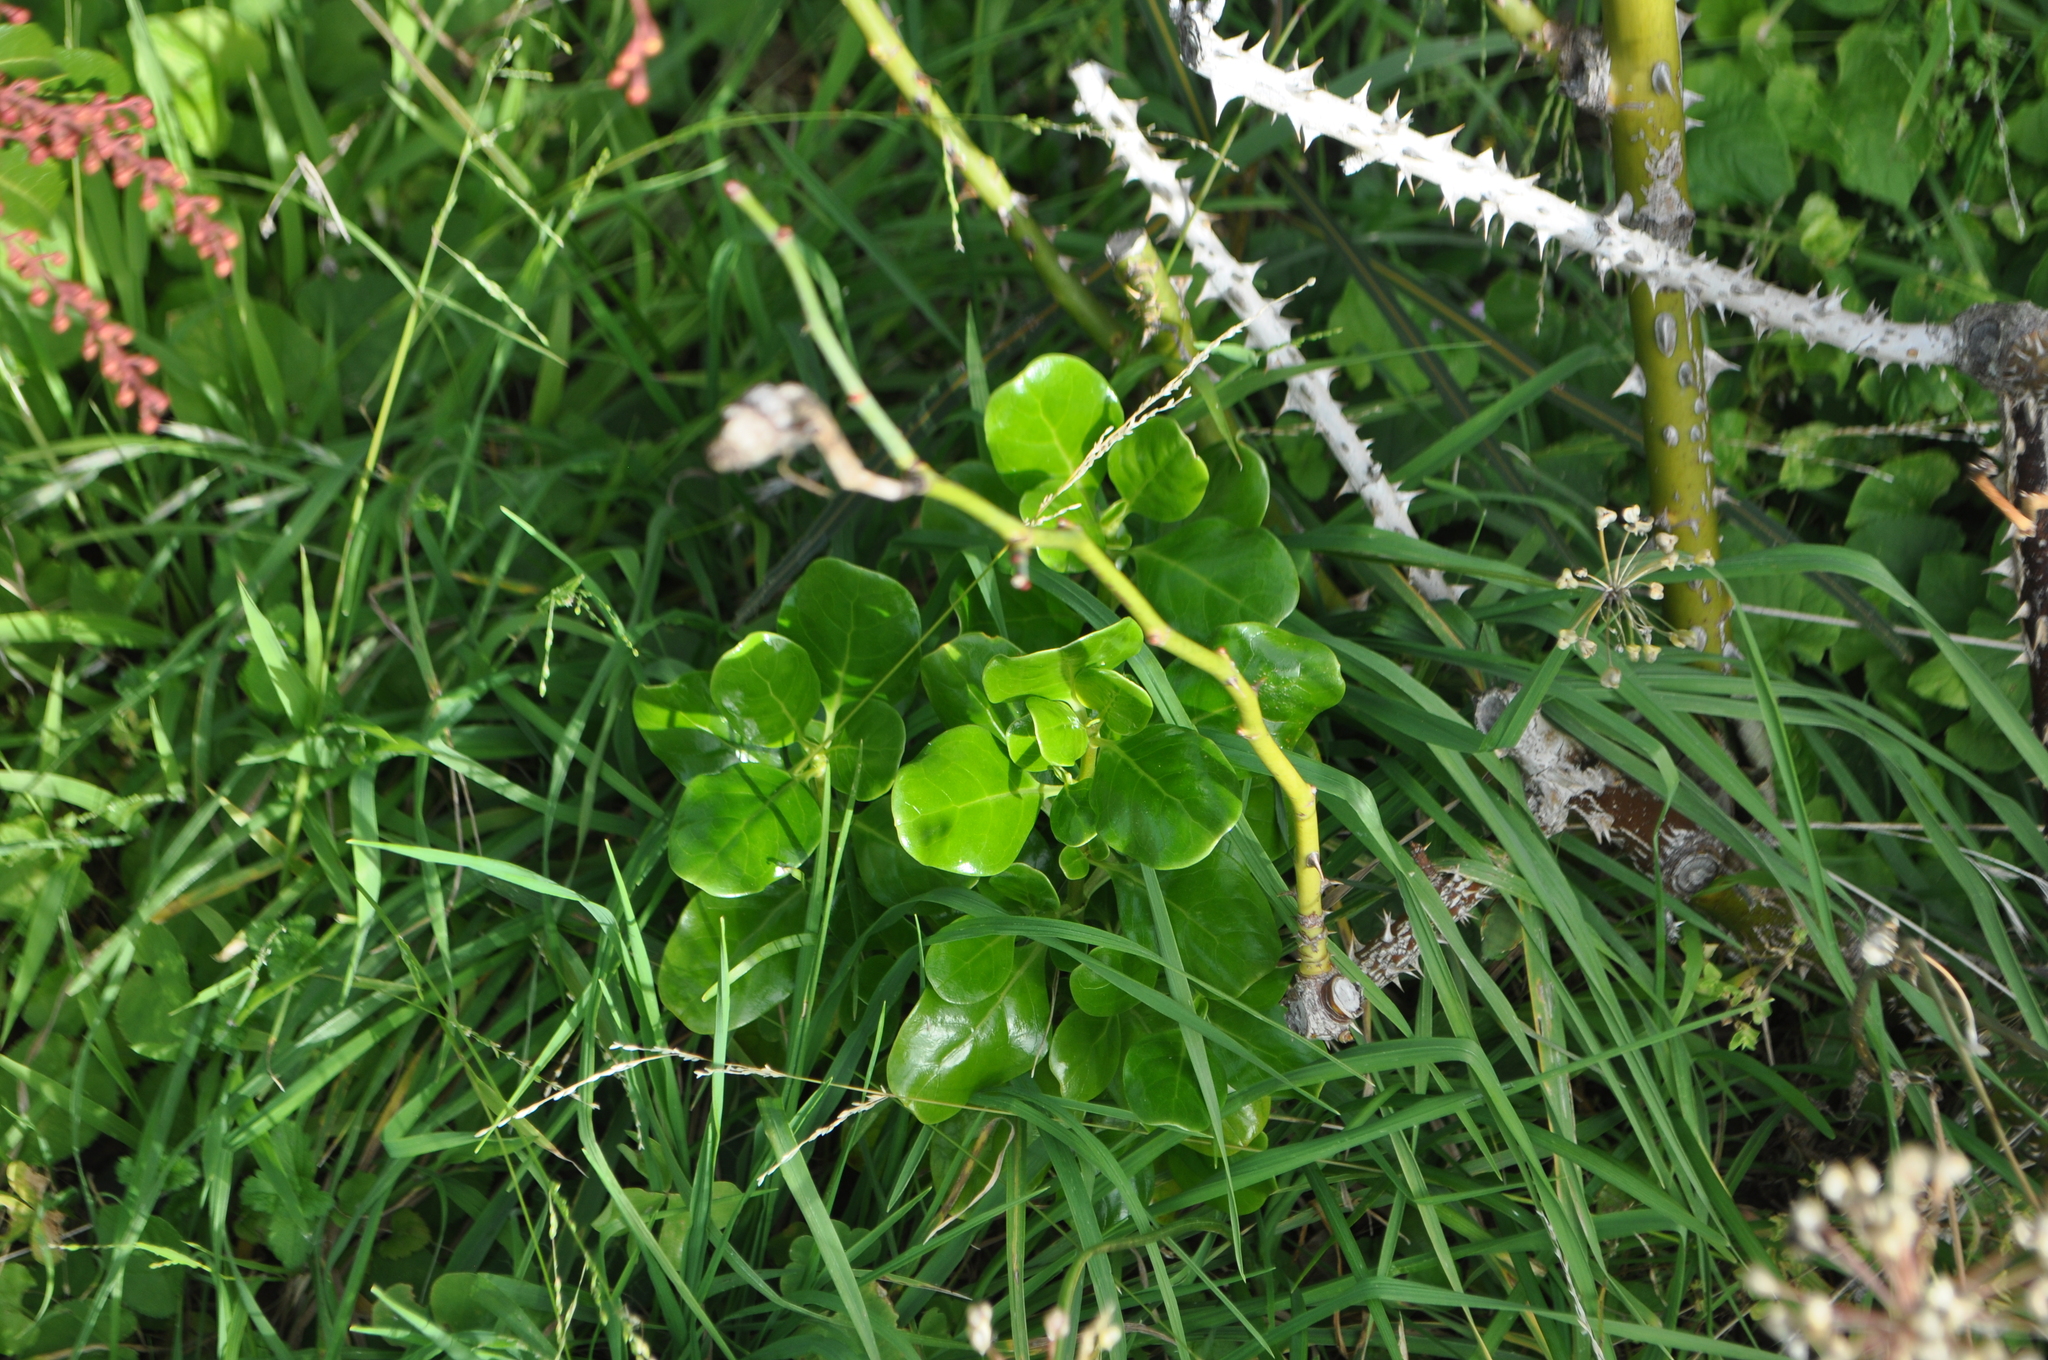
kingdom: Plantae
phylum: Tracheophyta
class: Magnoliopsida
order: Gentianales
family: Rubiaceae
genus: Coprosma
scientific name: Coprosma repens
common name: Tree bedstraw
